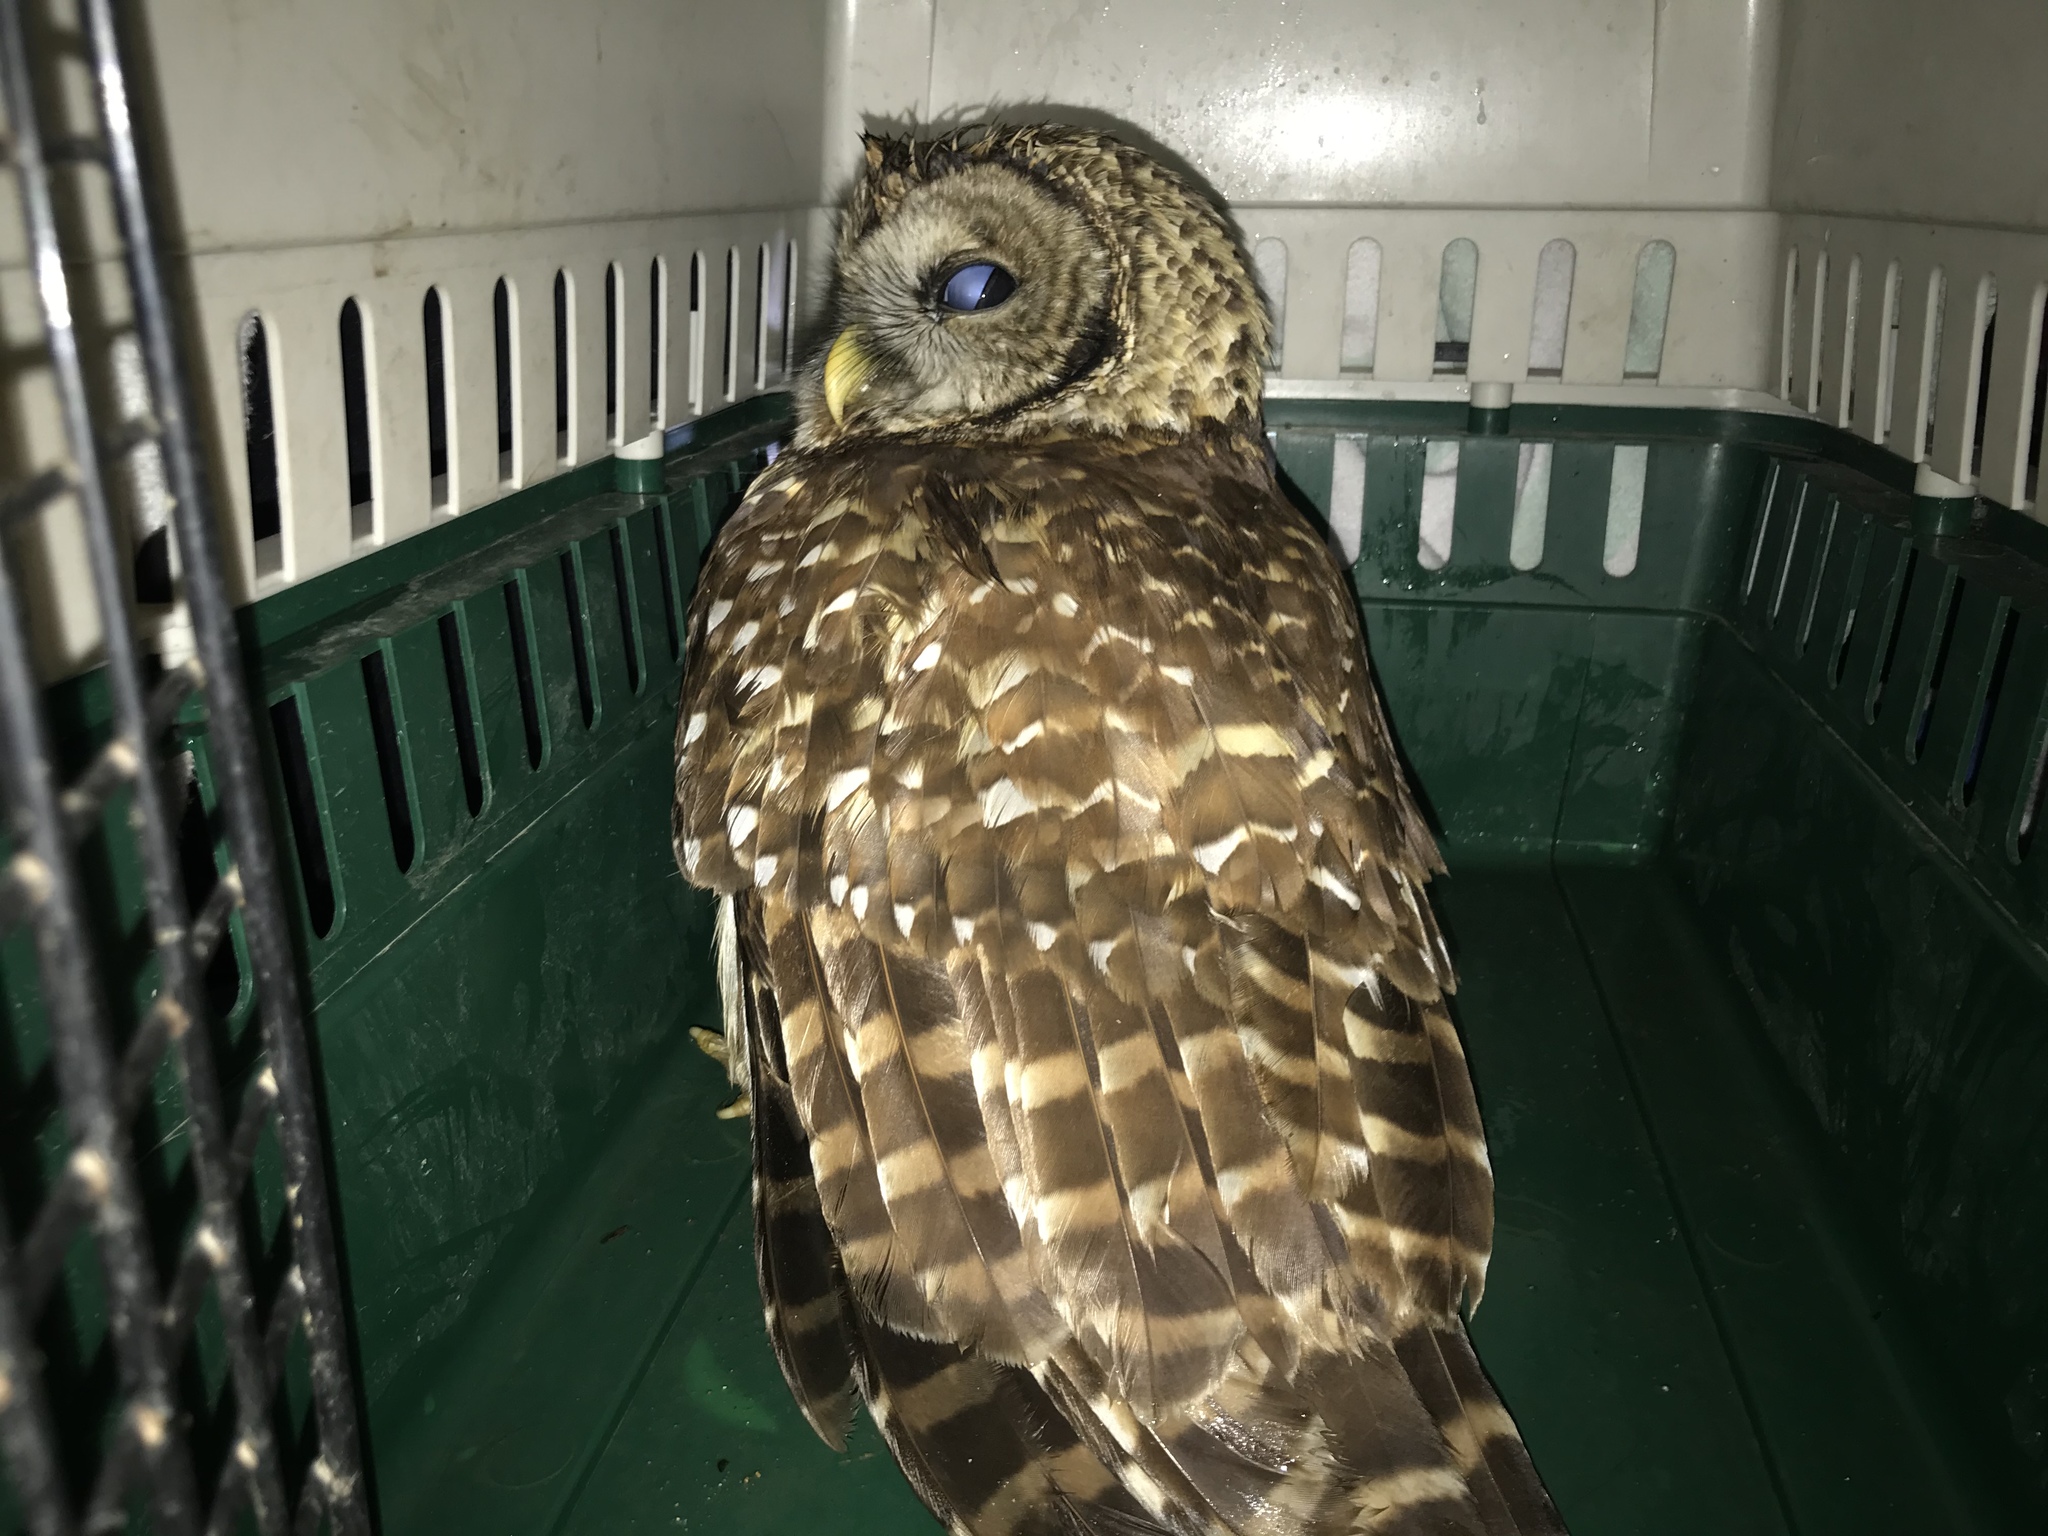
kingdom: Animalia
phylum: Chordata
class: Aves
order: Strigiformes
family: Strigidae
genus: Strix
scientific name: Strix varia
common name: Barred owl
